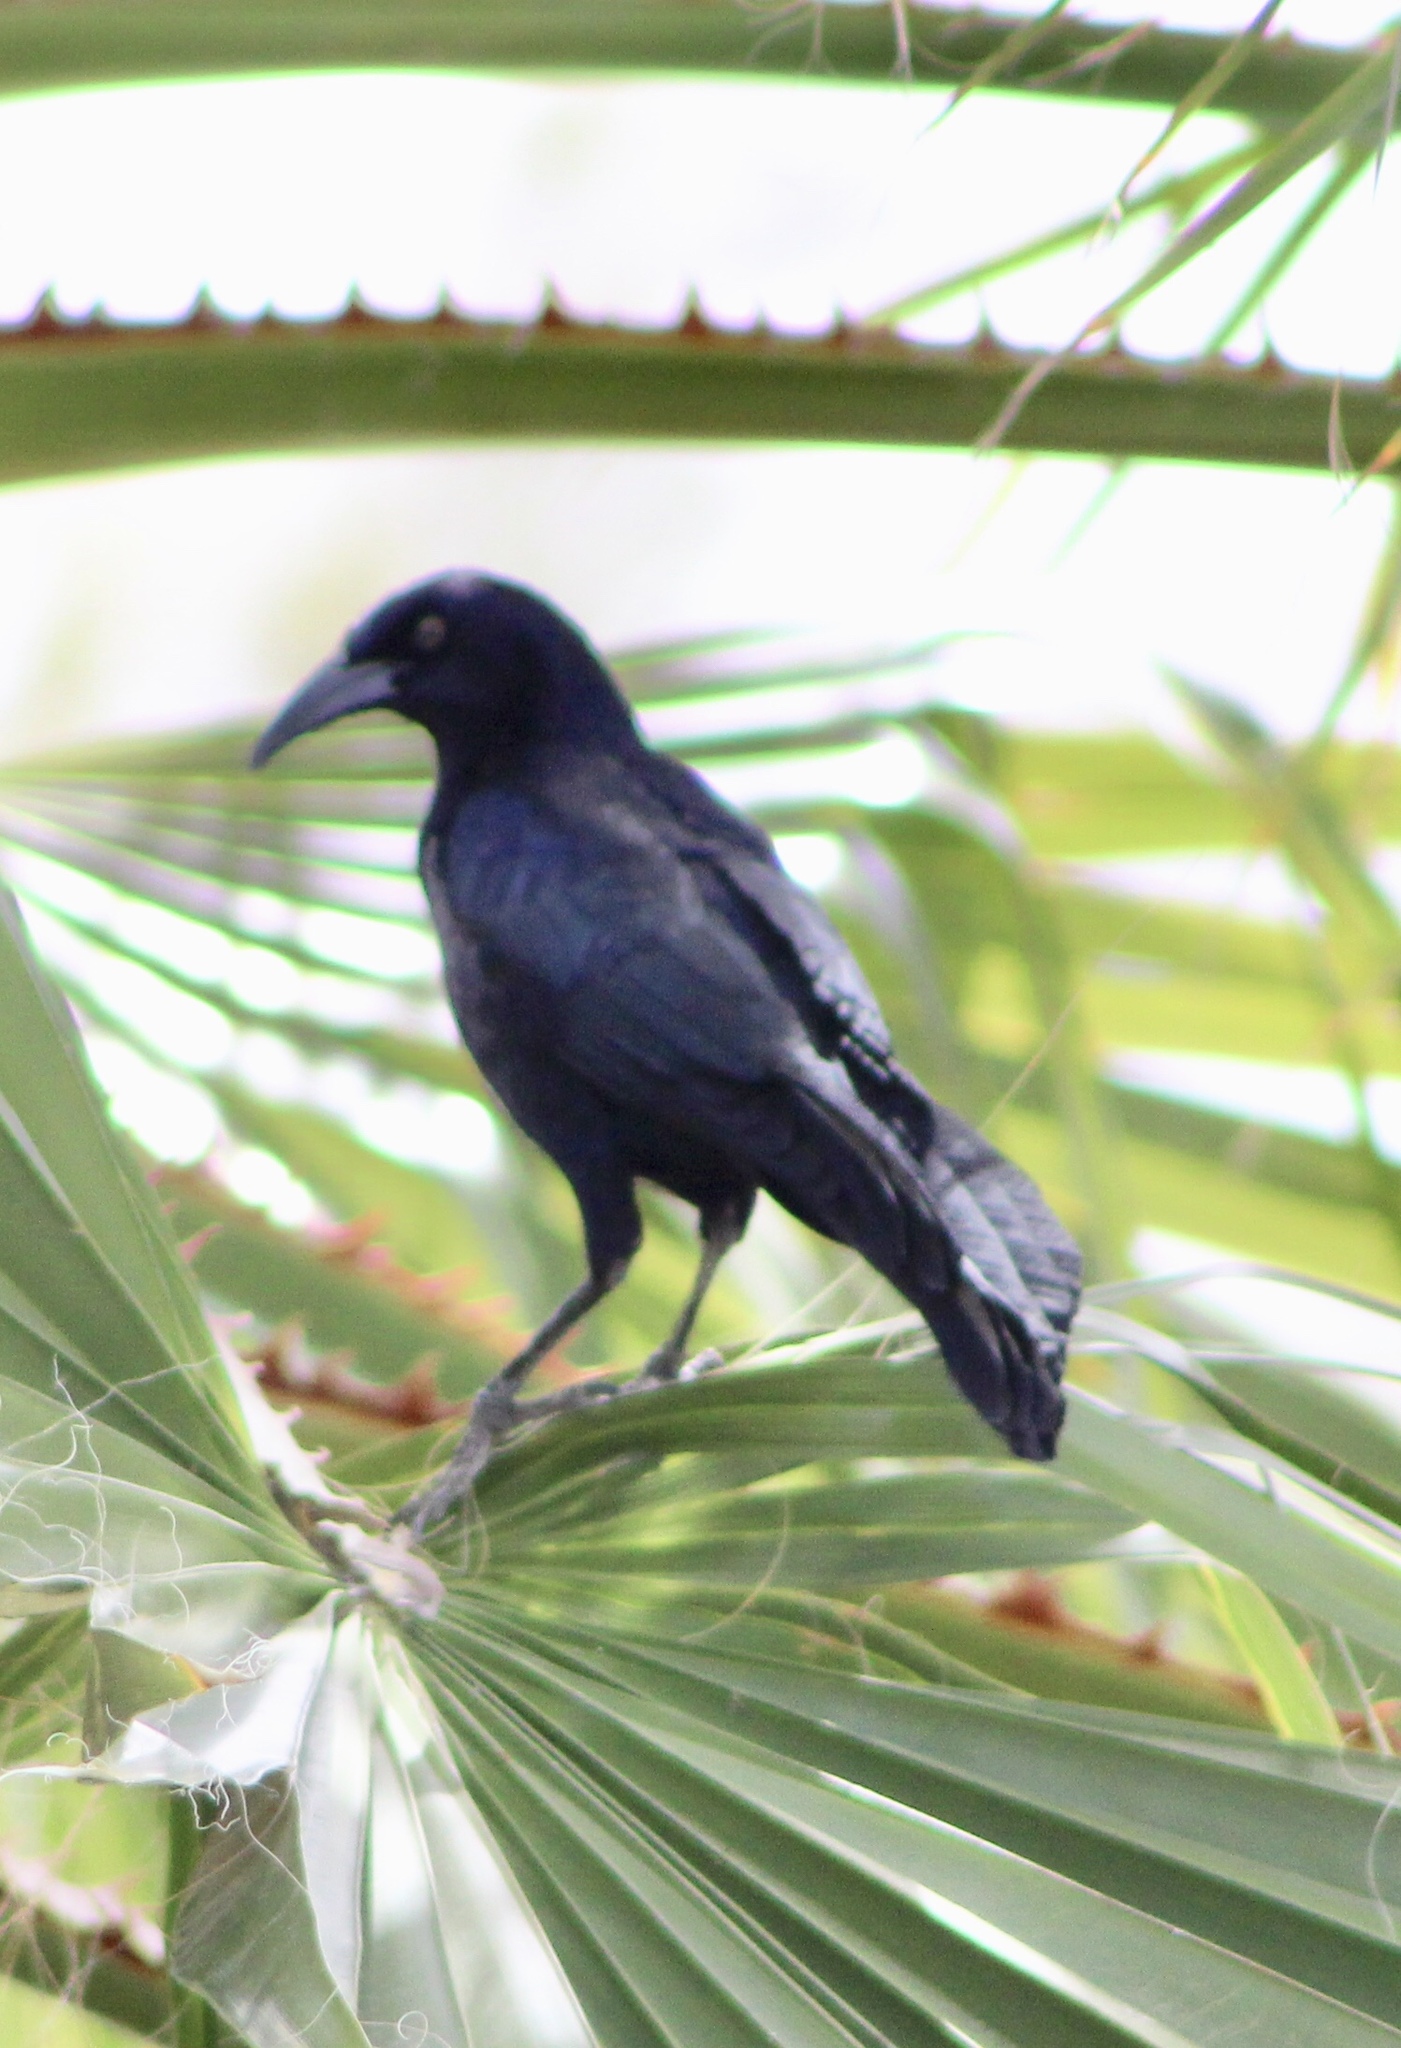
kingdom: Animalia
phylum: Chordata
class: Aves
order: Passeriformes
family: Icteridae
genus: Quiscalus
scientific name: Quiscalus mexicanus
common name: Great-tailed grackle
